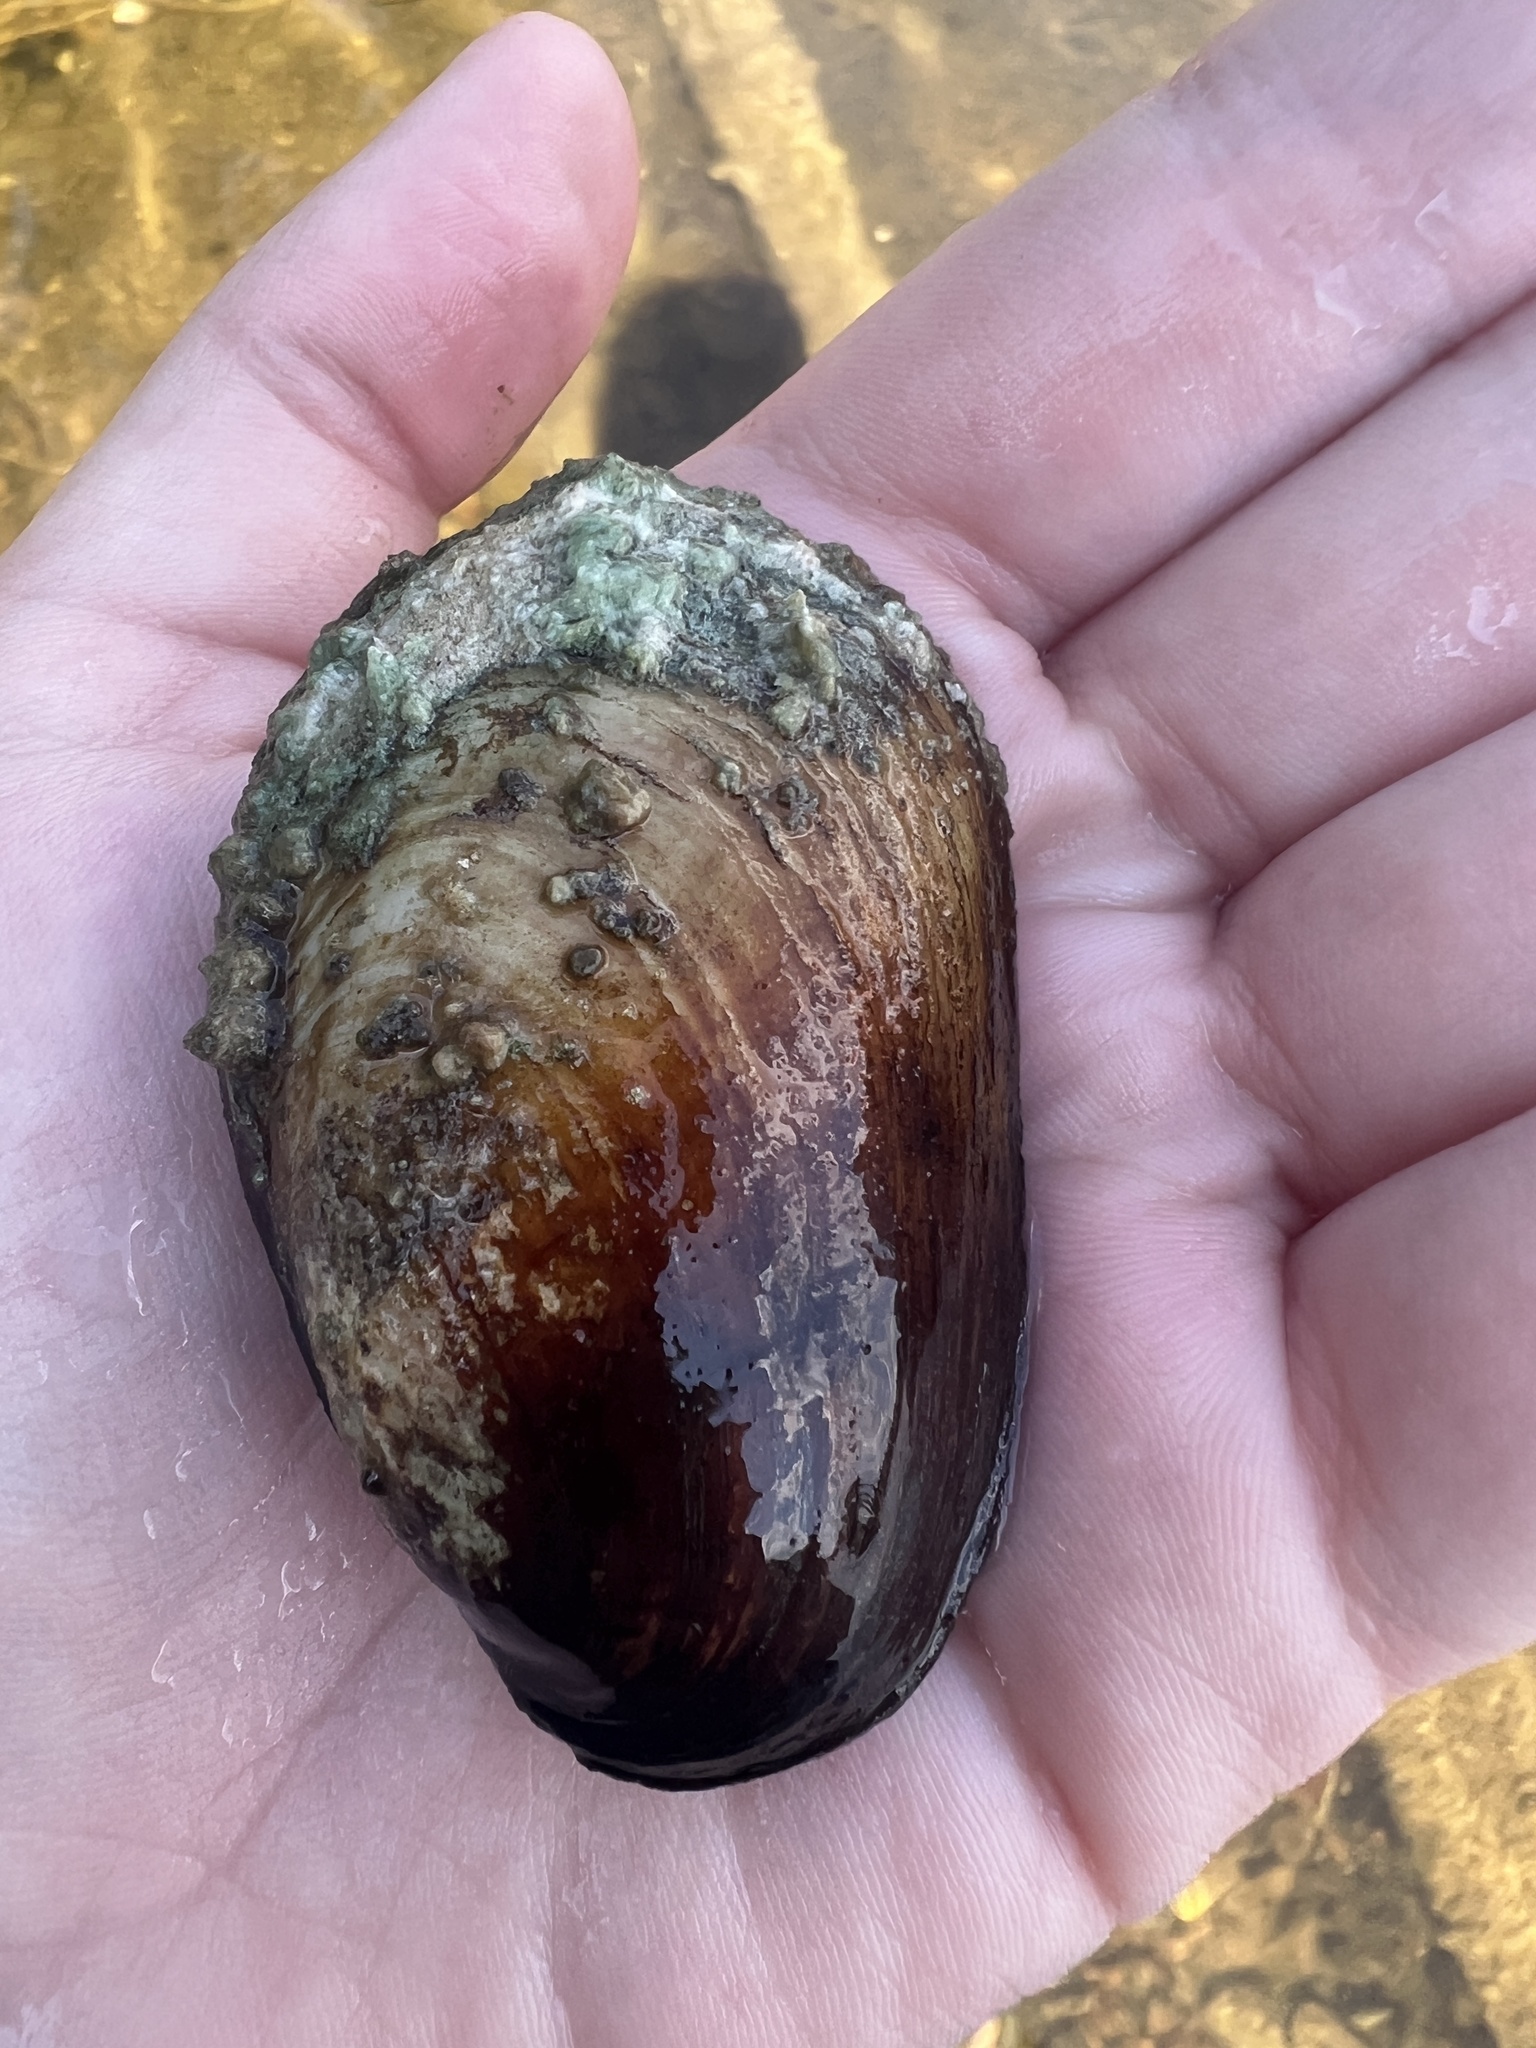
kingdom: Animalia
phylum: Mollusca
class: Bivalvia
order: Unionida
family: Unionidae
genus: Lampsilis
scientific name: Lampsilis siliquoidea
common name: Fatmucket
